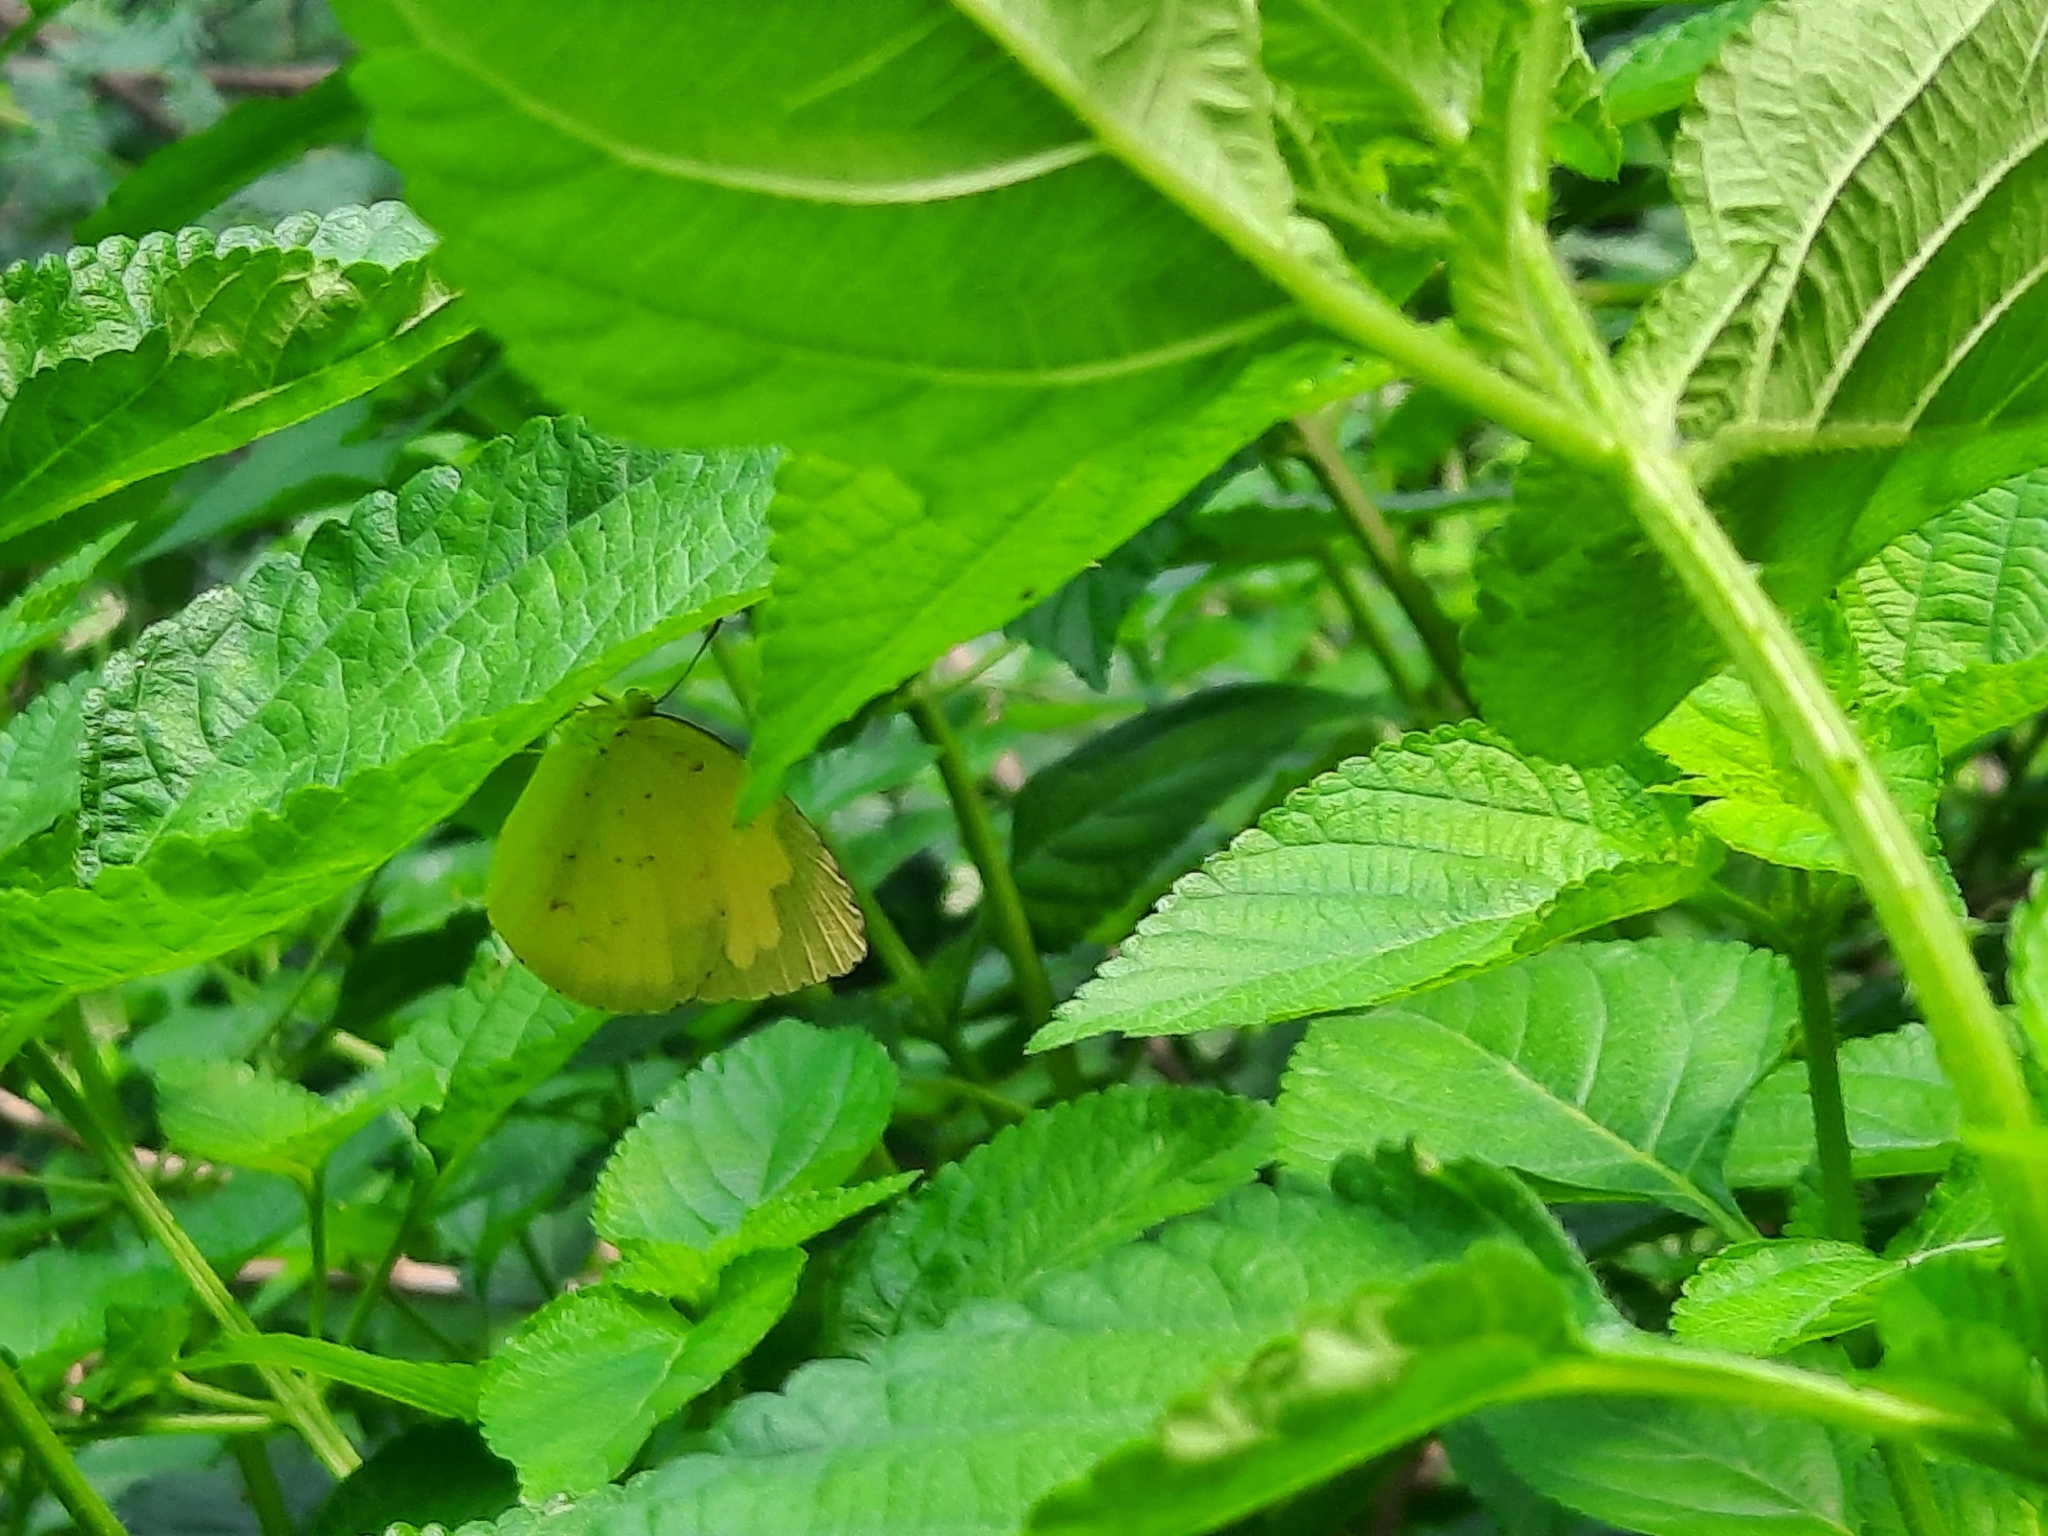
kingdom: Animalia
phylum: Arthropoda
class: Insecta
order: Lepidoptera
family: Pieridae
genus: Eurema
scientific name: Eurema hecabe
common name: Pale grass yellow
